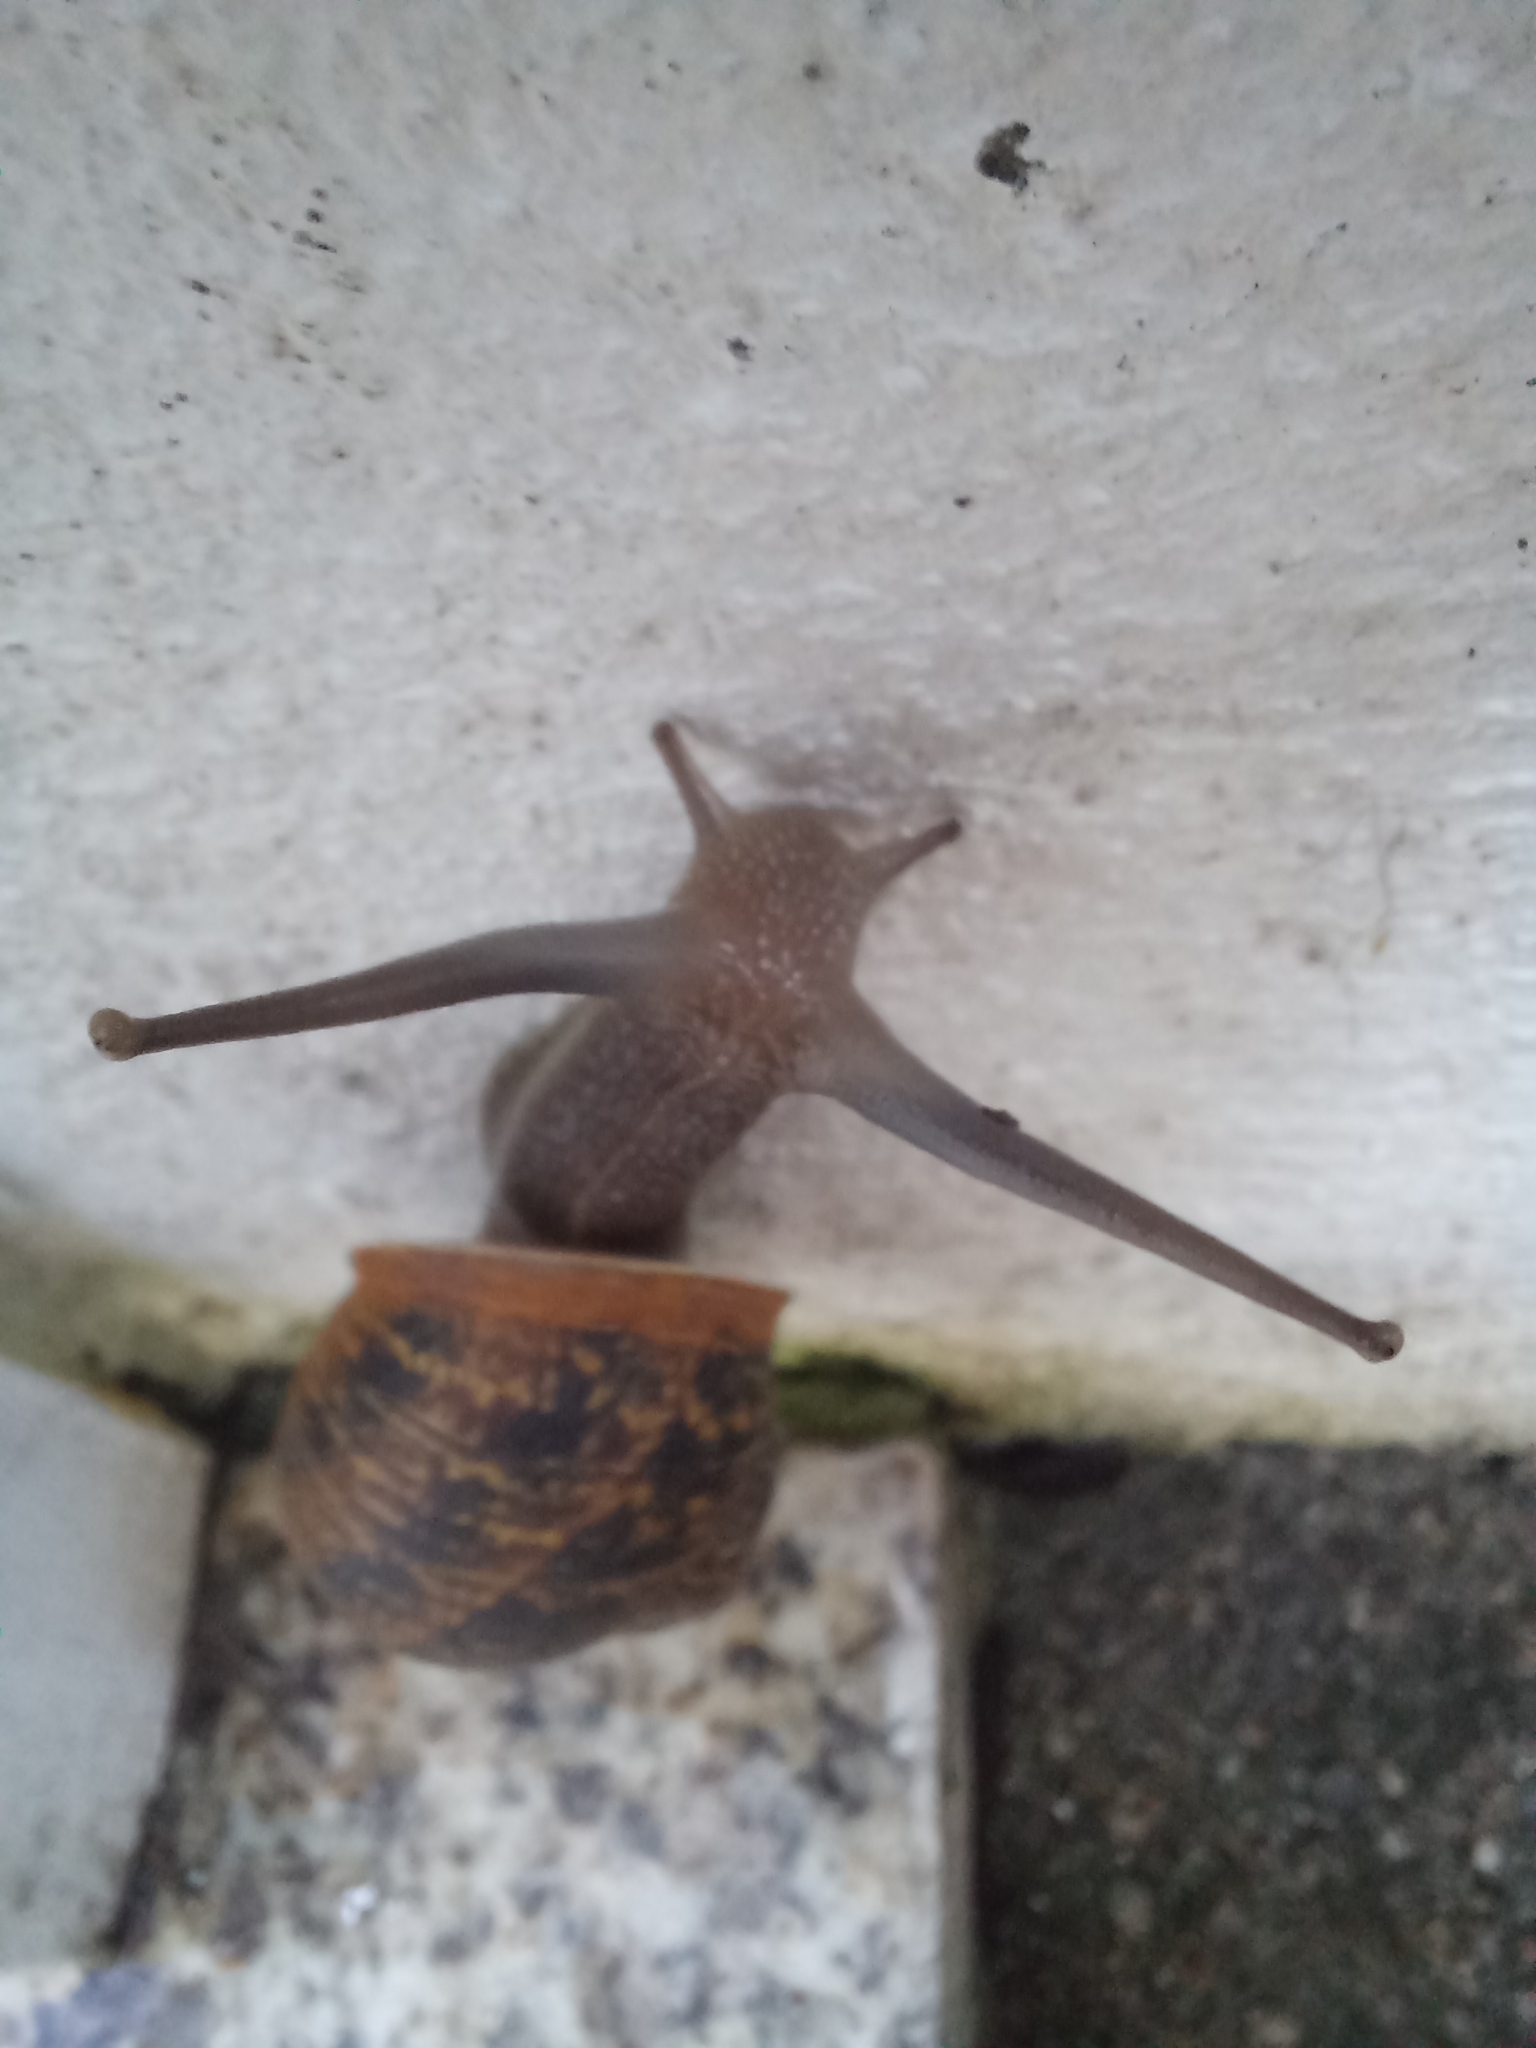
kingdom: Animalia
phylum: Mollusca
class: Gastropoda
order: Stylommatophora
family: Helicidae
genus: Cornu
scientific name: Cornu aspersum
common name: Brown garden snail
